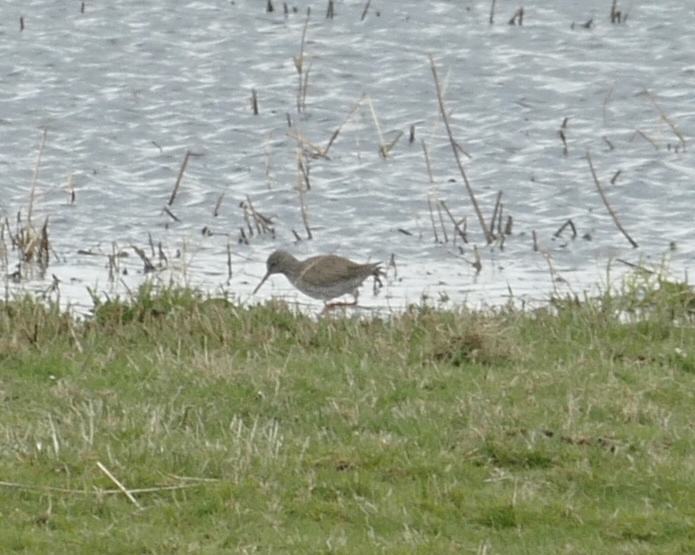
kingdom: Animalia
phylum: Chordata
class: Aves
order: Charadriiformes
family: Scolopacidae
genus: Tringa
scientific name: Tringa totanus
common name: Common redshank
